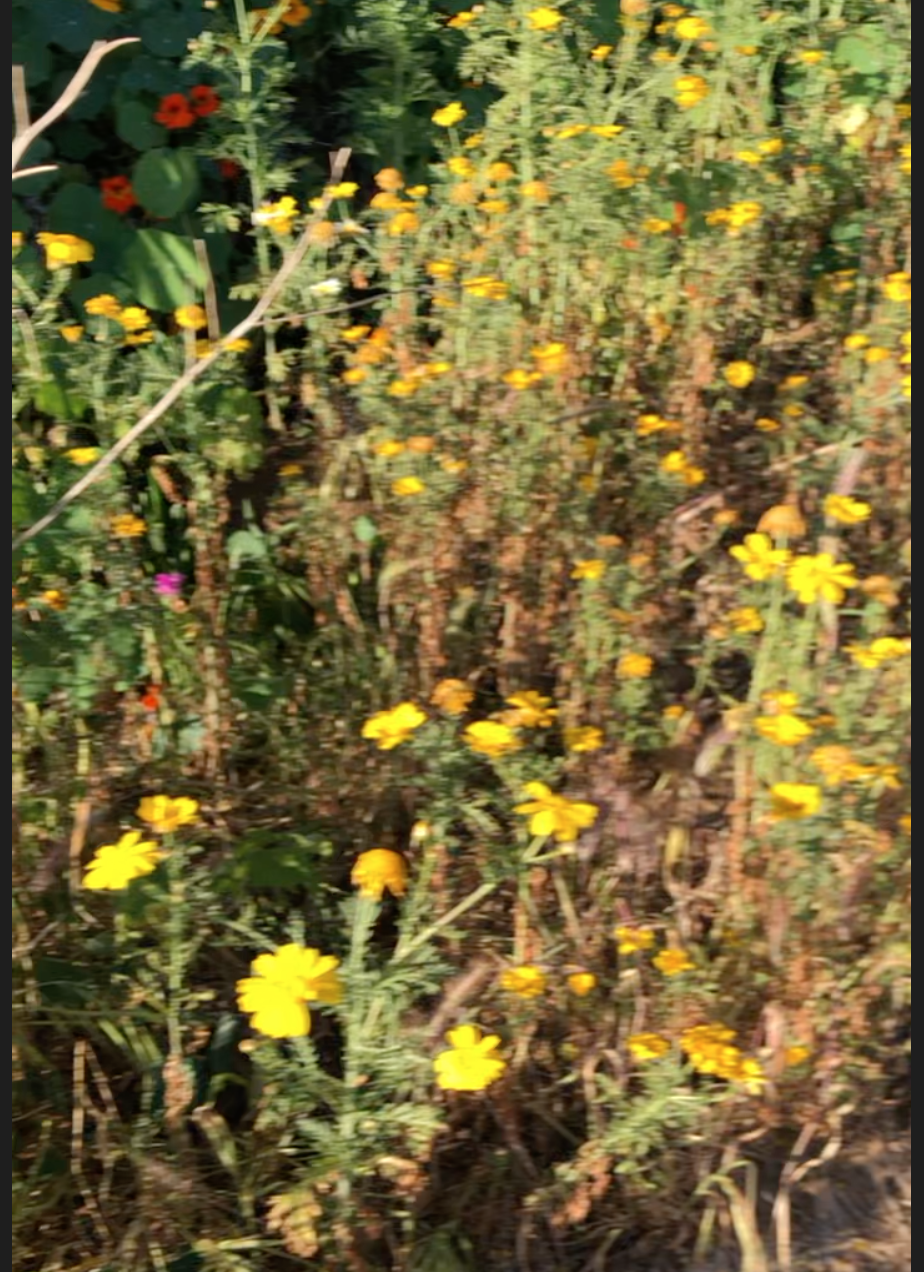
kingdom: Plantae
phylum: Tracheophyta
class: Magnoliopsida
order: Asterales
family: Asteraceae
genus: Glebionis
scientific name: Glebionis coronaria
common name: Crowndaisy
